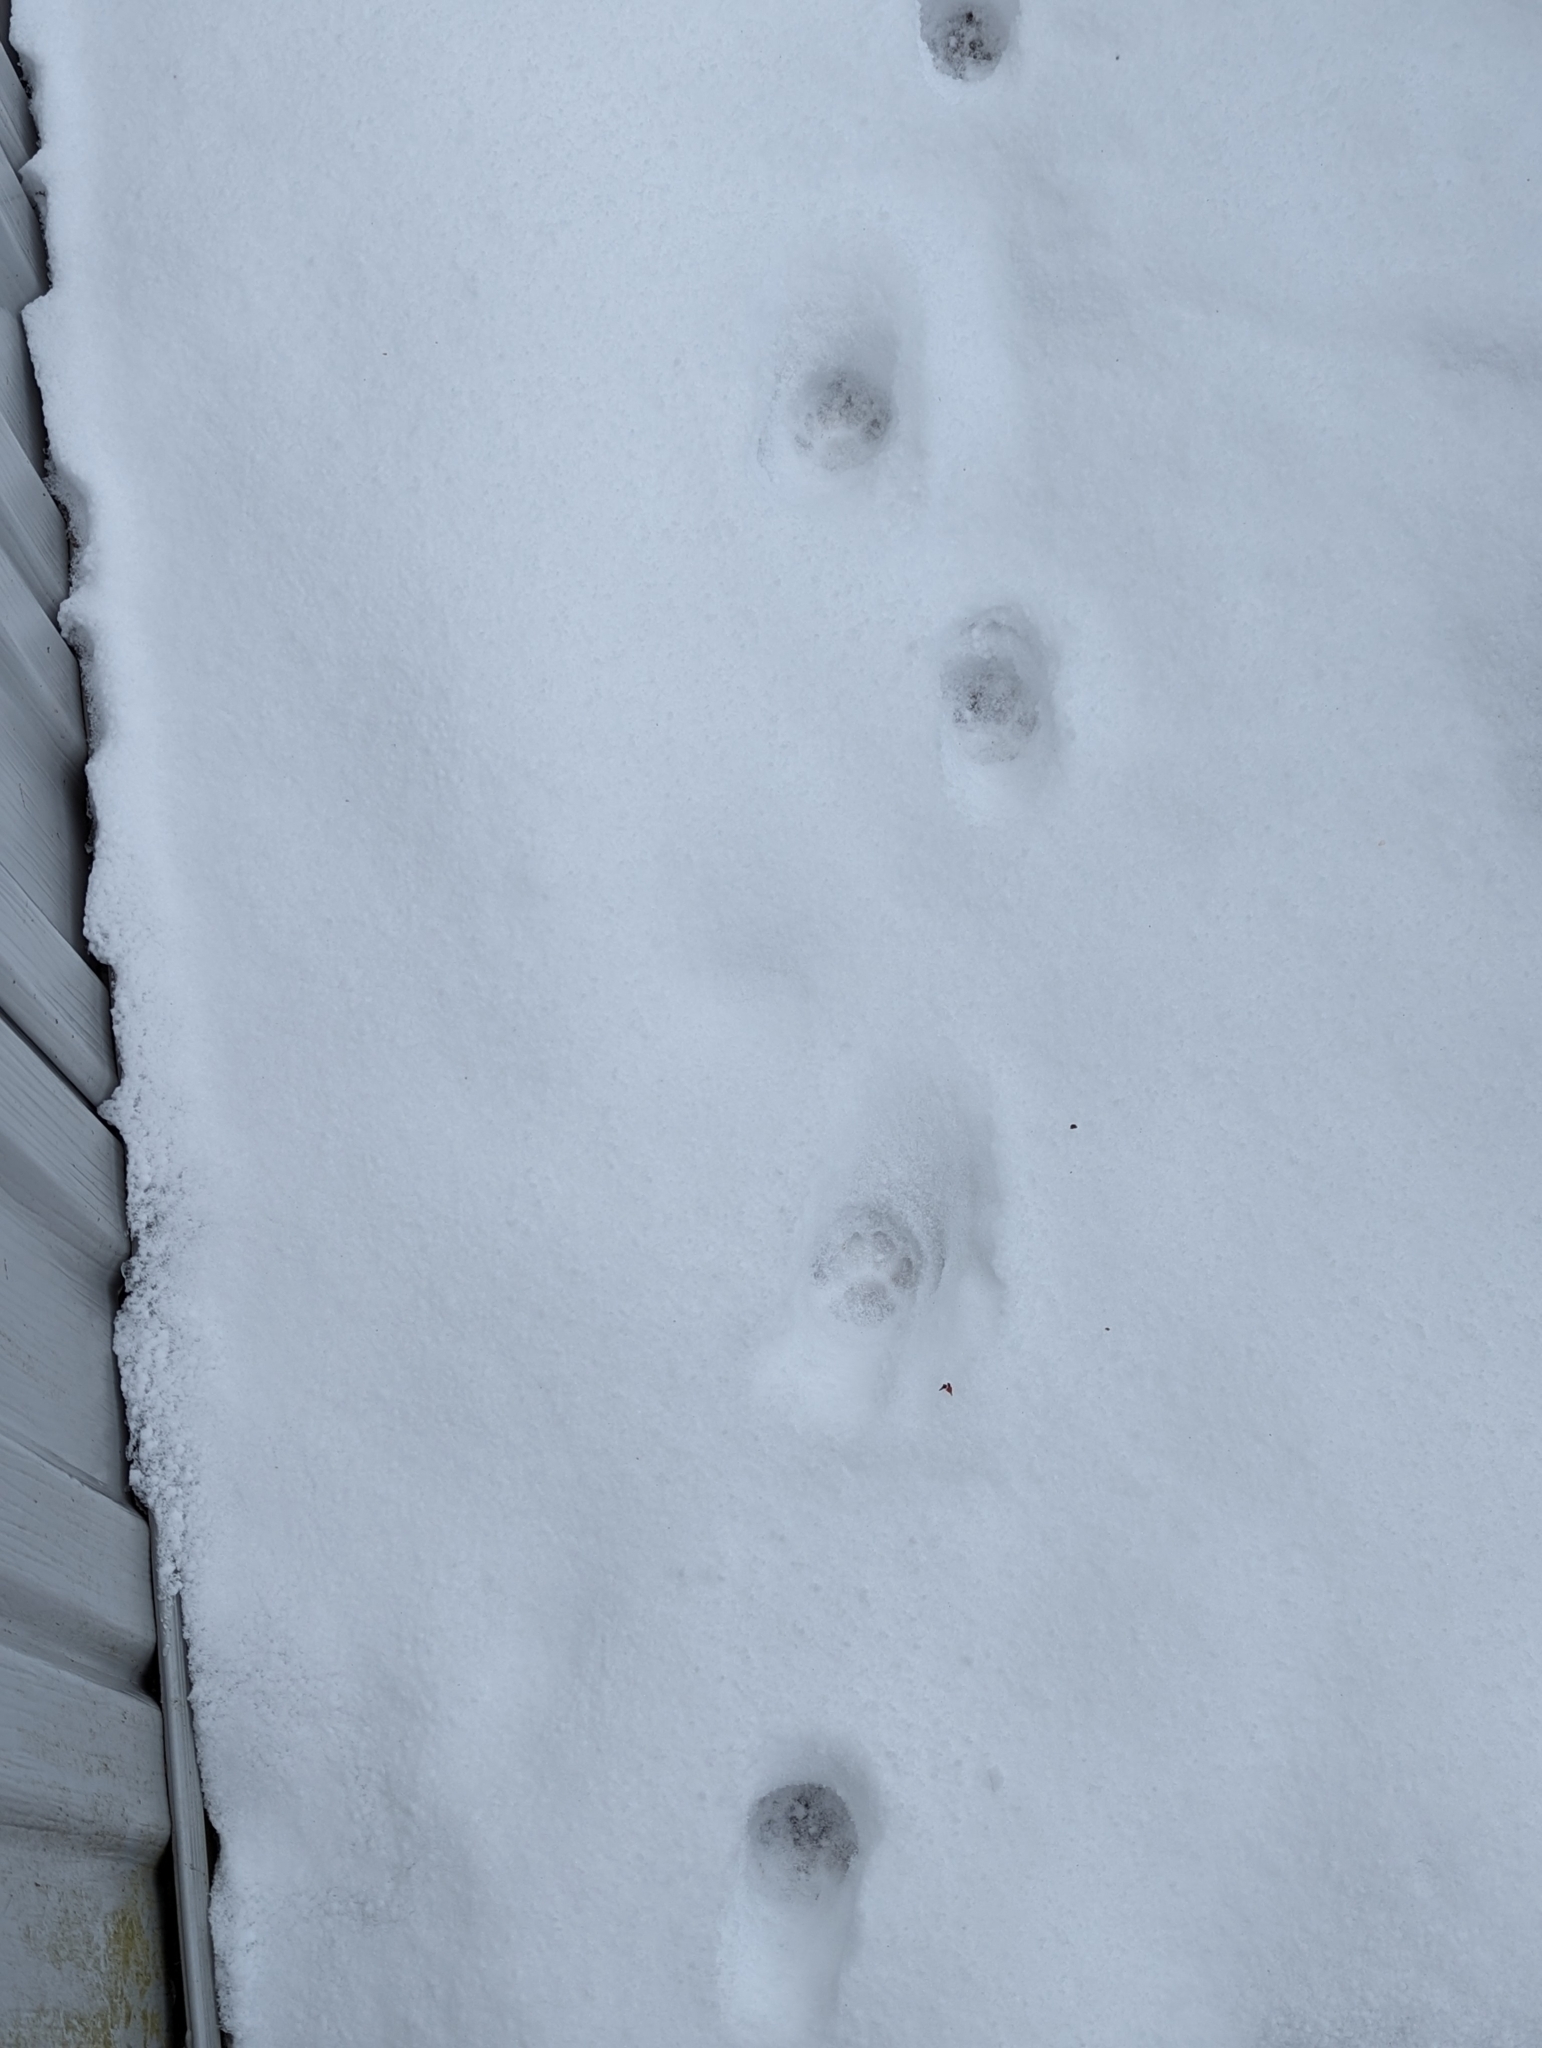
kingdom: Animalia
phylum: Chordata
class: Mammalia
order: Carnivora
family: Felidae
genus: Felis
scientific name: Felis catus
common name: Domestic cat
